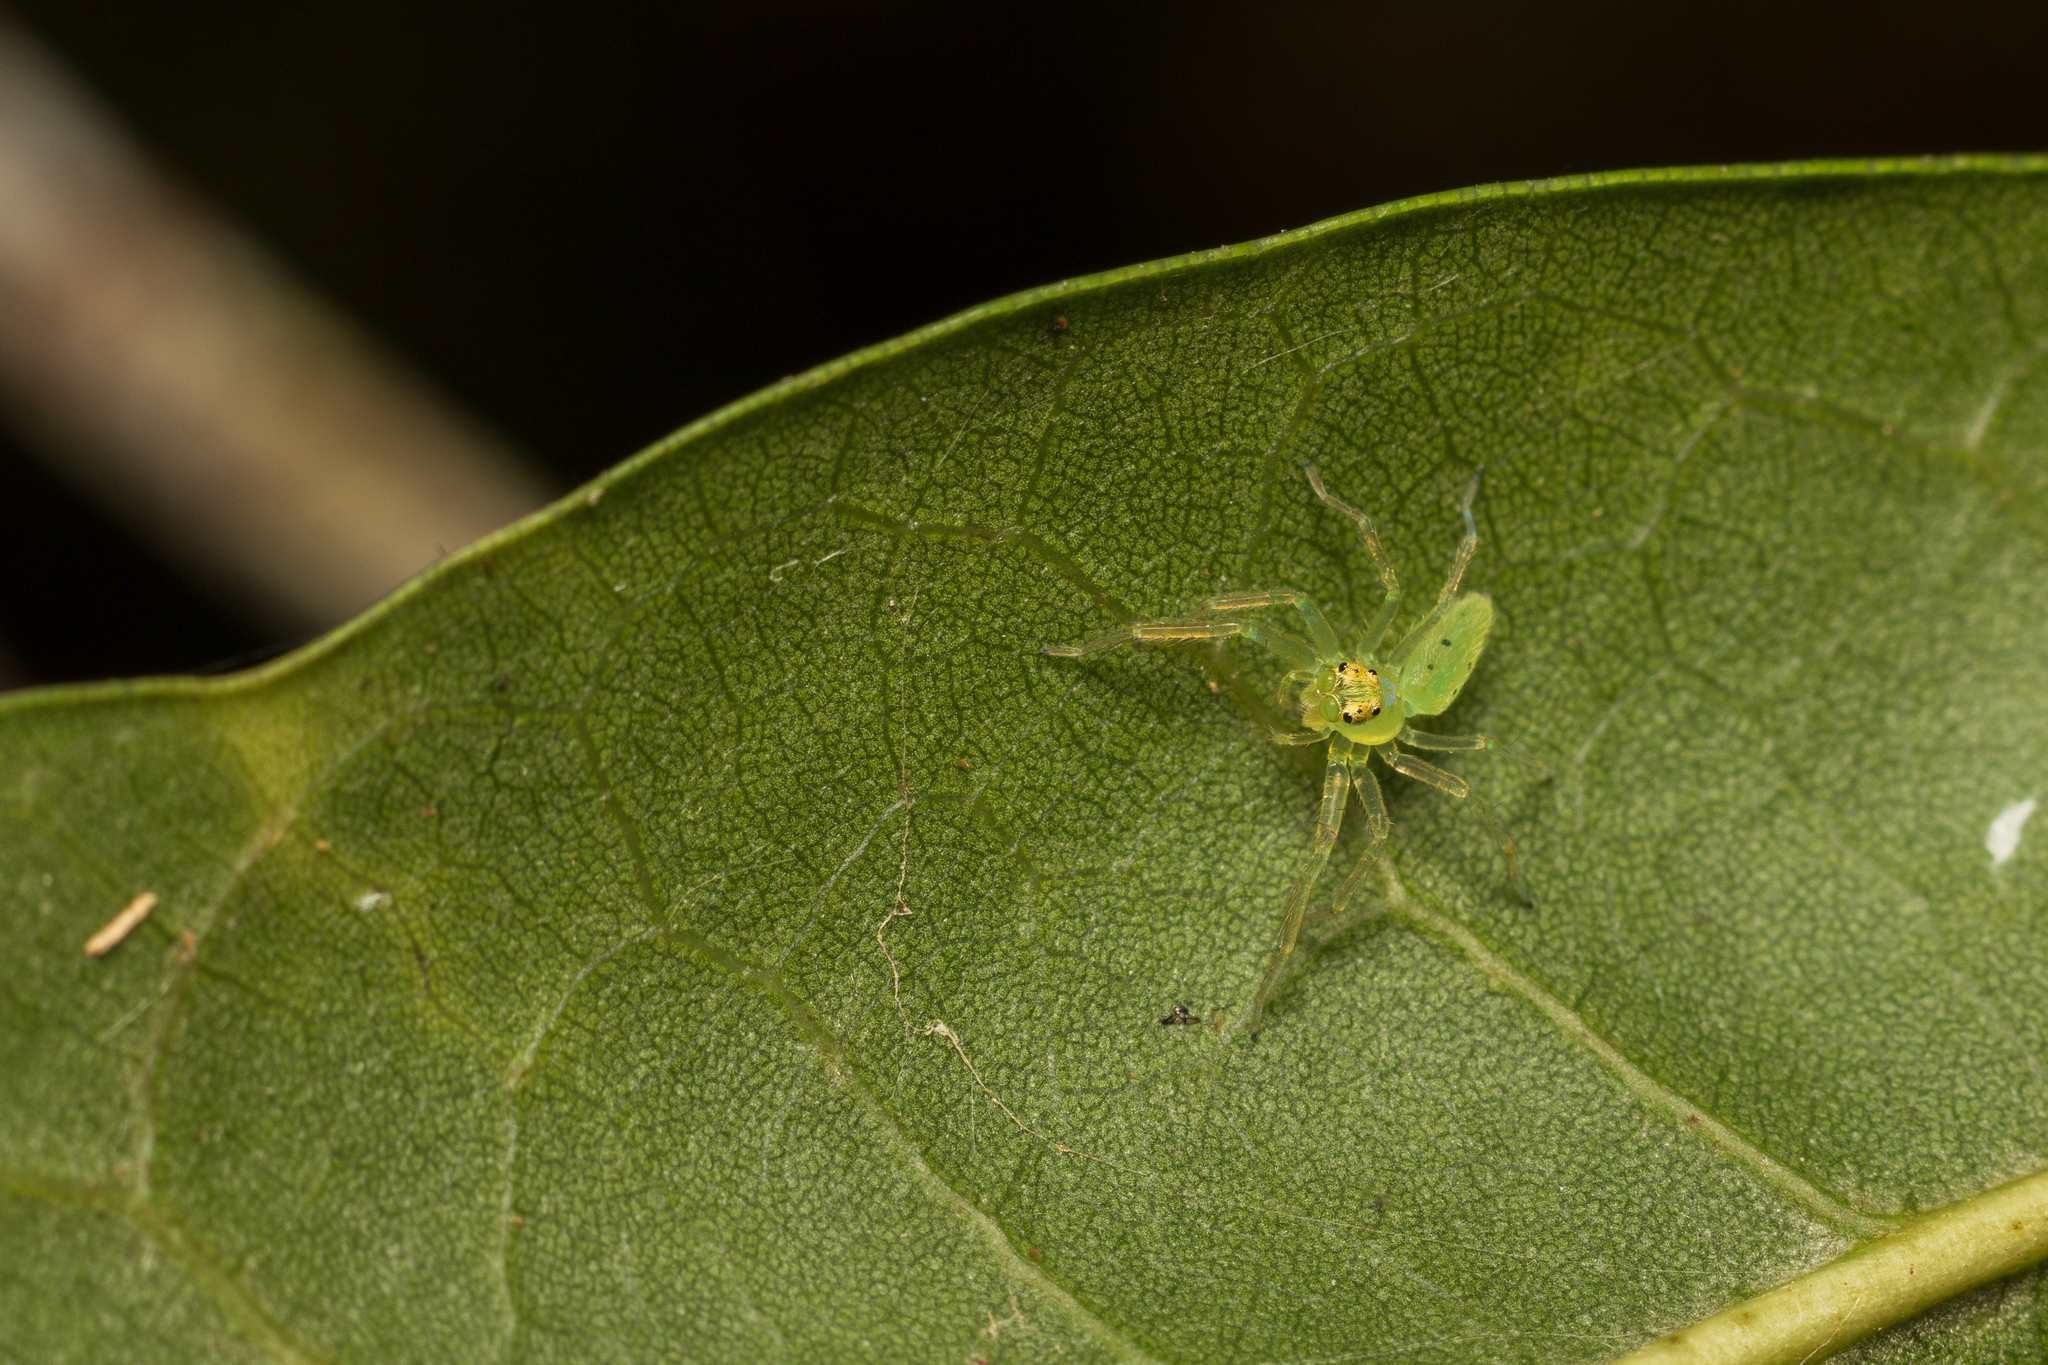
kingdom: Animalia
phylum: Arthropoda
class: Arachnida
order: Araneae
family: Salticidae
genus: Lyssomanes
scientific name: Lyssomanes viridis
